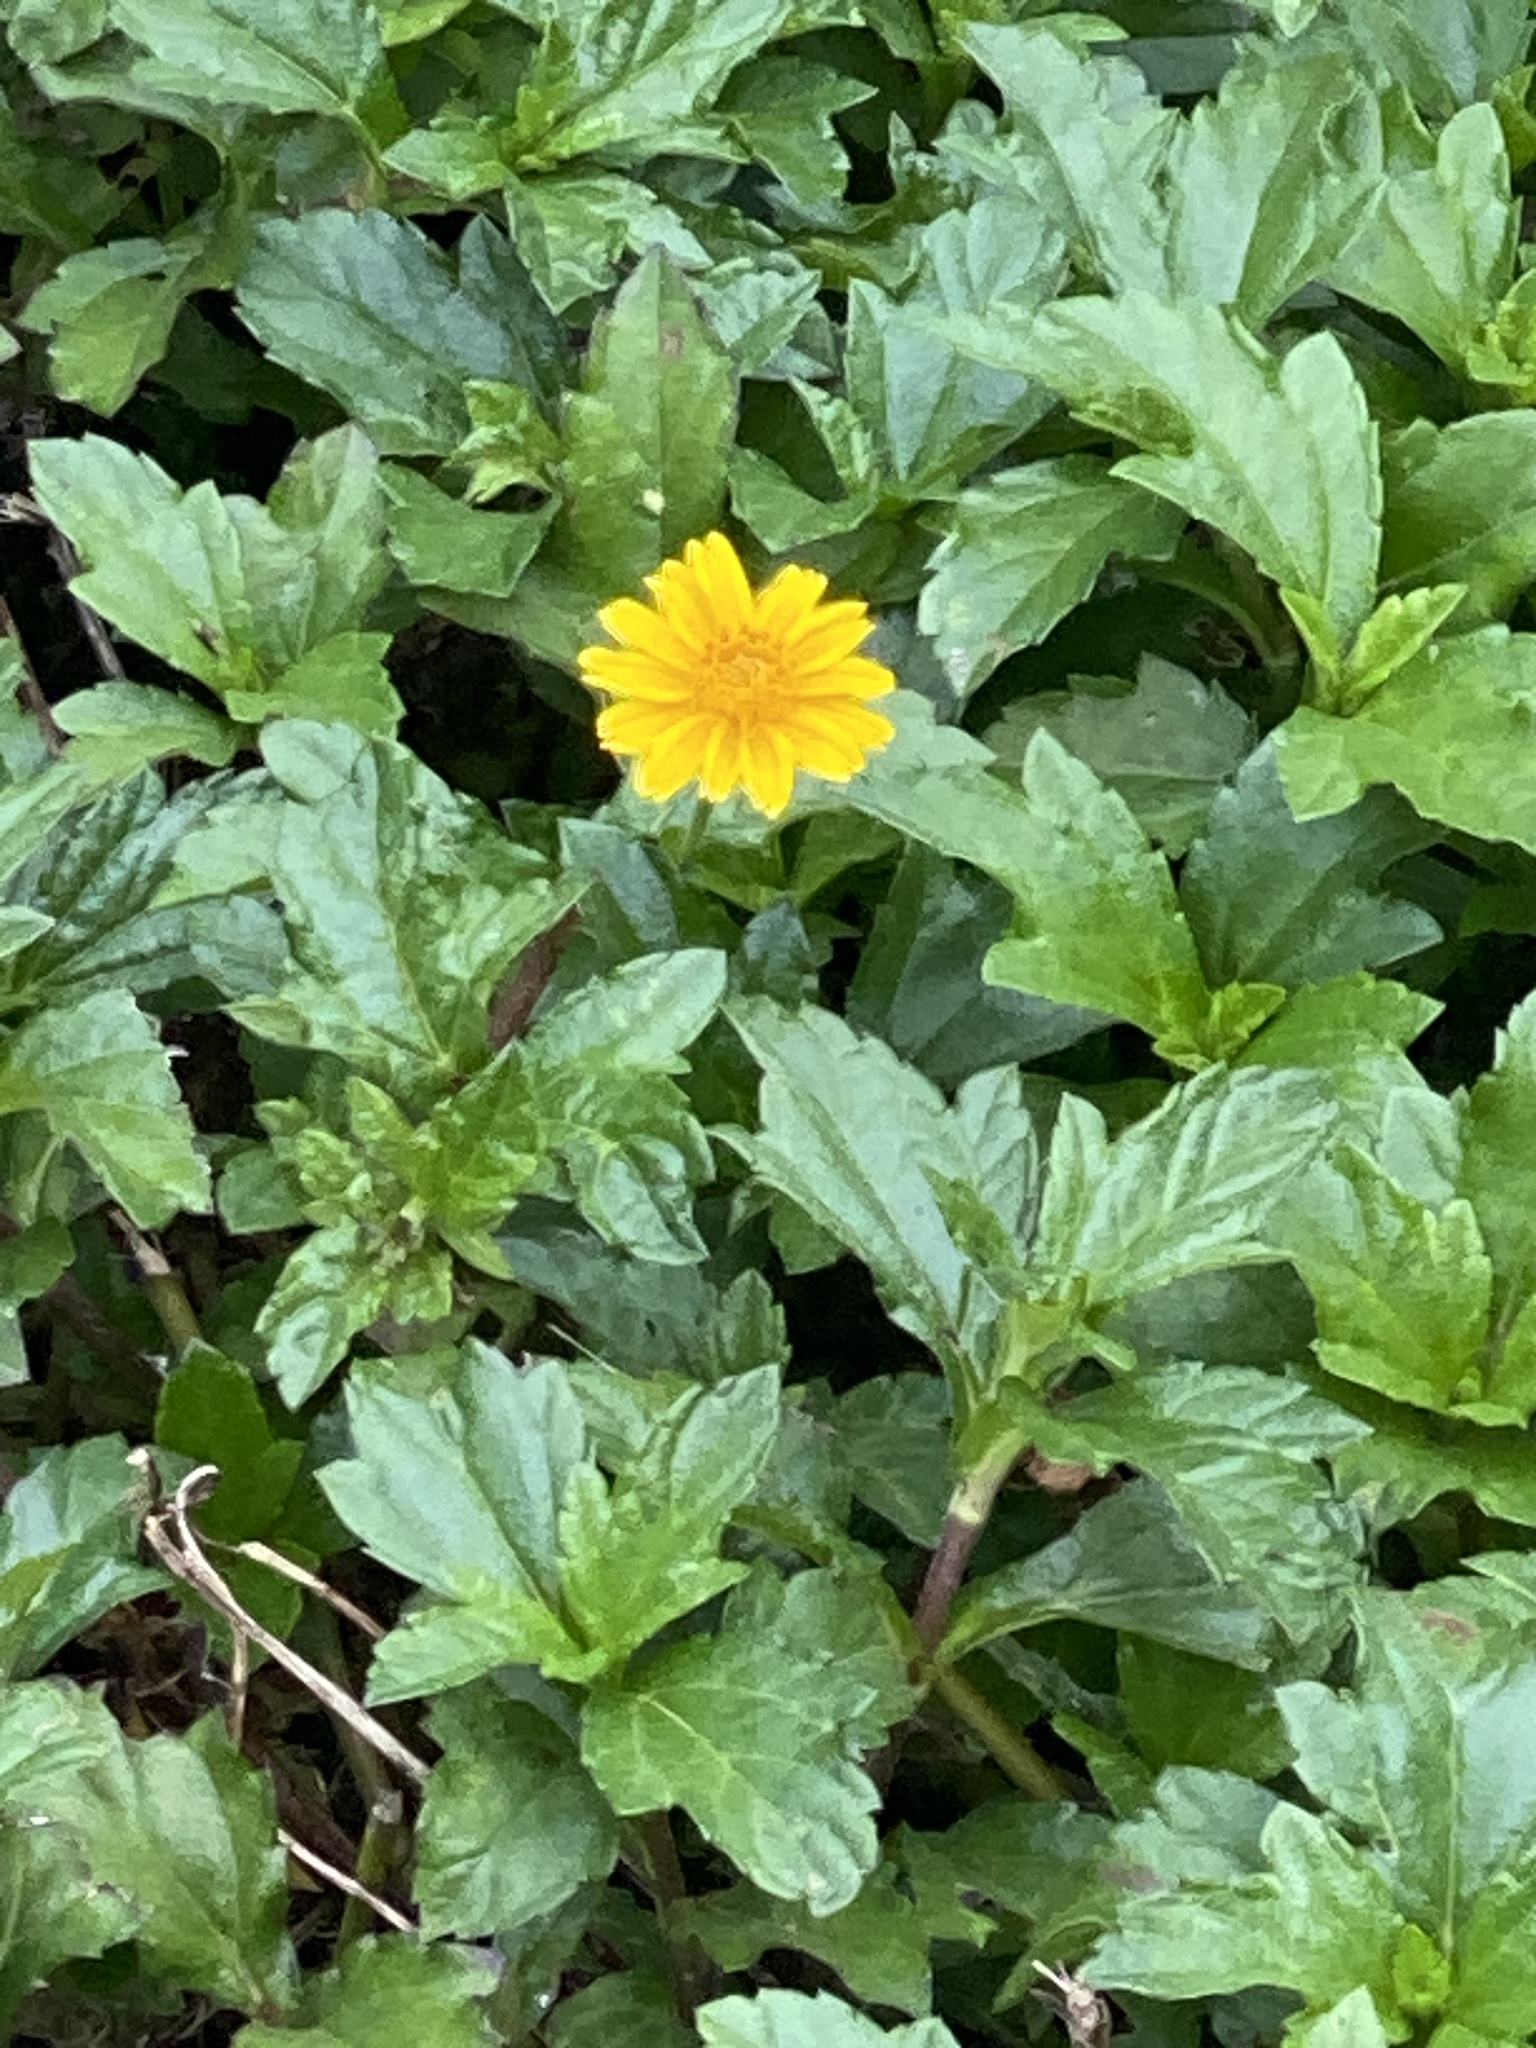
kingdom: Plantae
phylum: Tracheophyta
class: Magnoliopsida
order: Asterales
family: Asteraceae
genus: Sphagneticola
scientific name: Sphagneticola trilobata
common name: Bay biscayne creeping-oxeye
